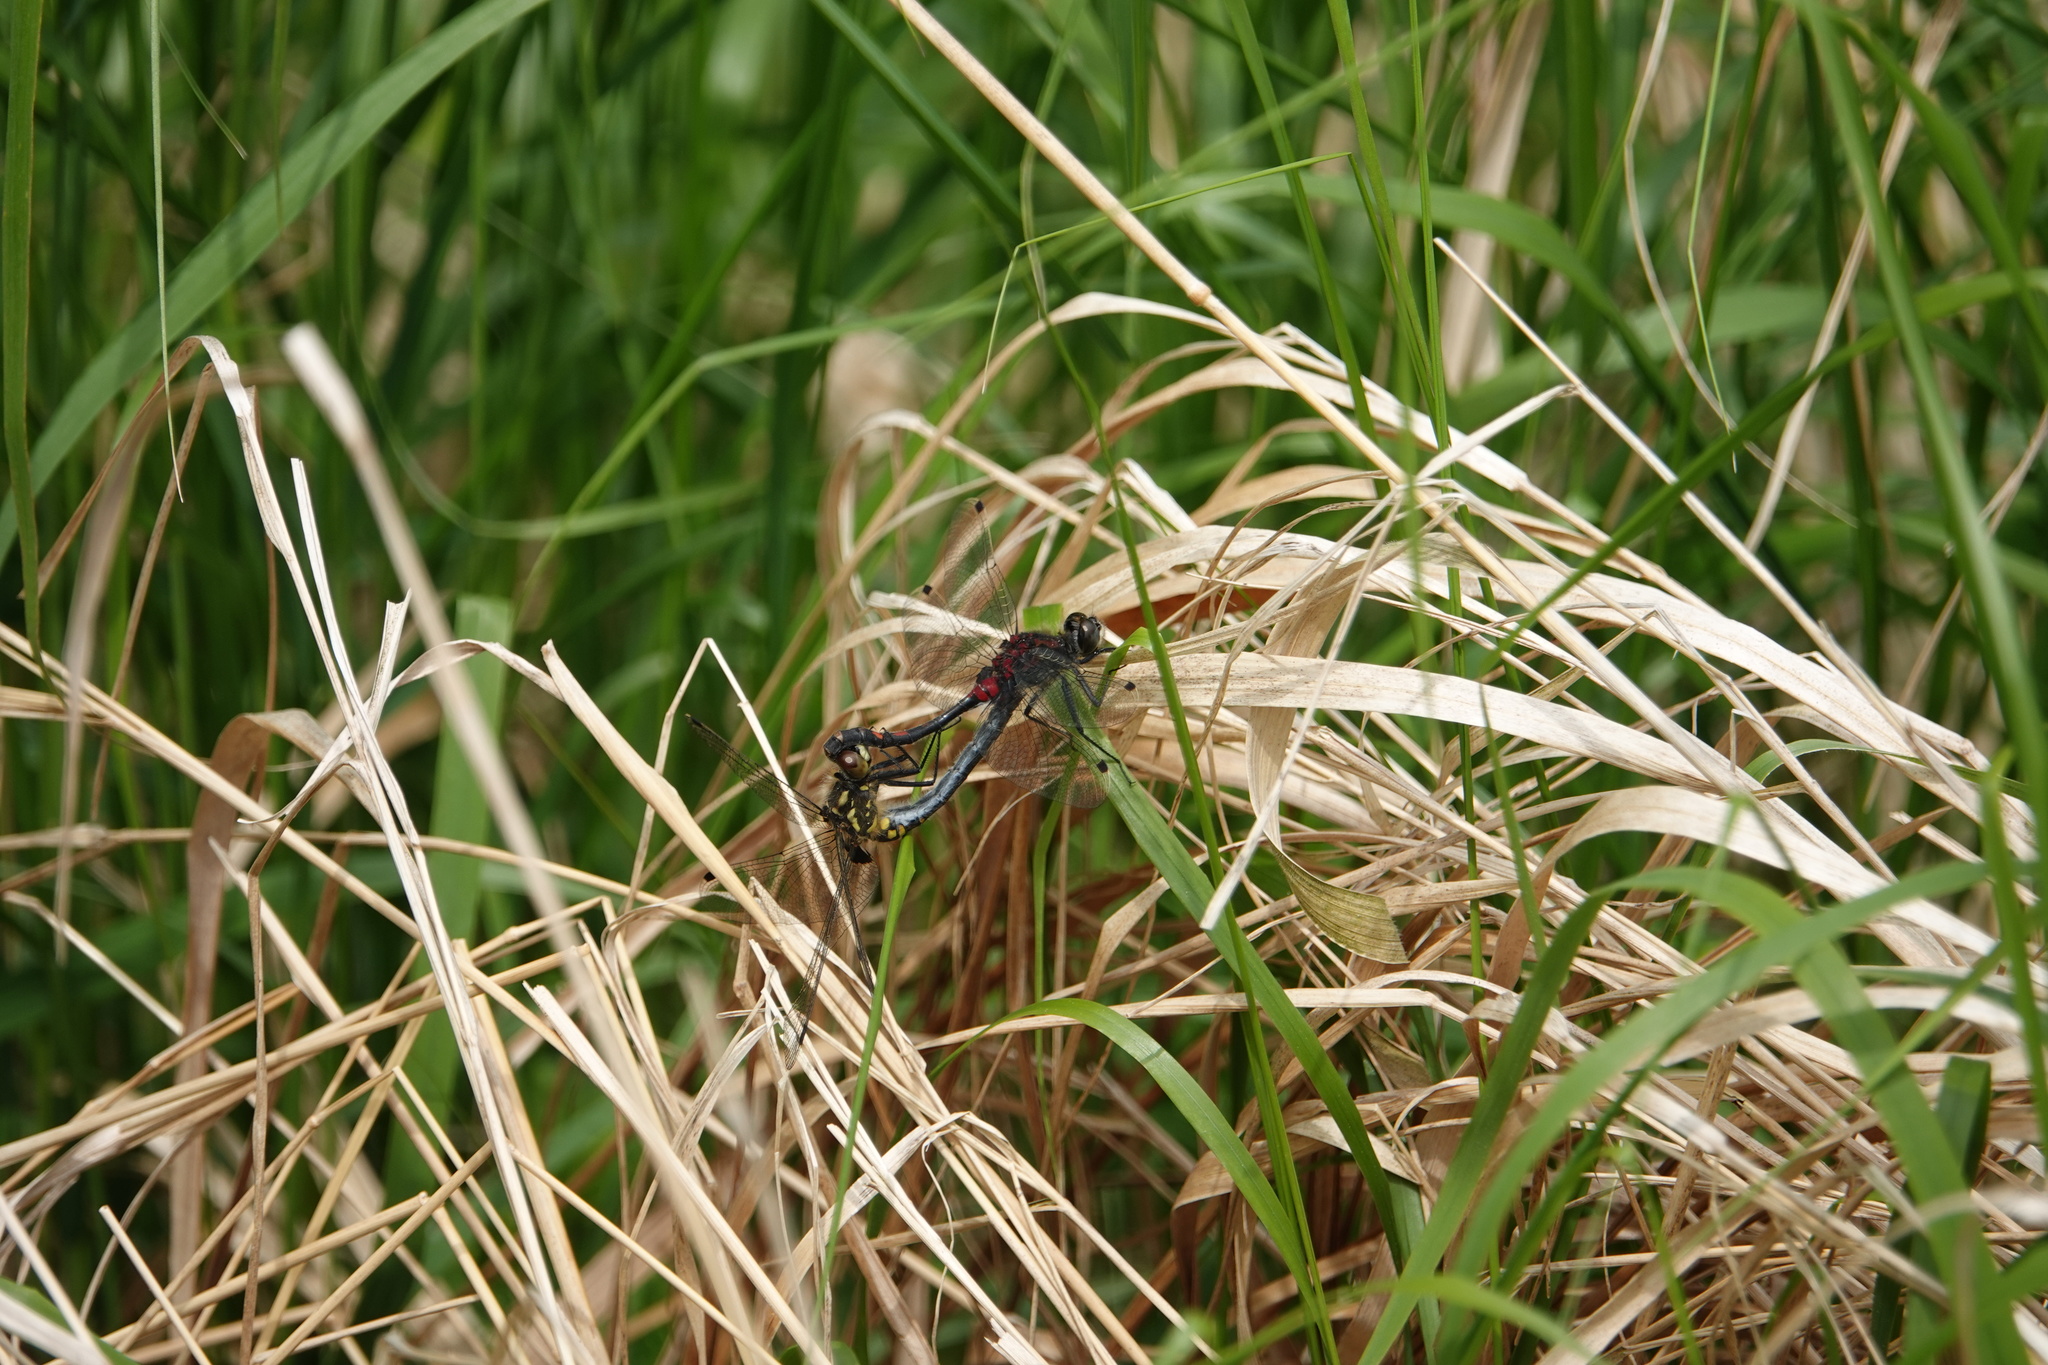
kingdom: Animalia
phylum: Arthropoda
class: Insecta
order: Odonata
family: Libellulidae
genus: Leucorrhinia
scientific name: Leucorrhinia dubia
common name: White-faced darter
